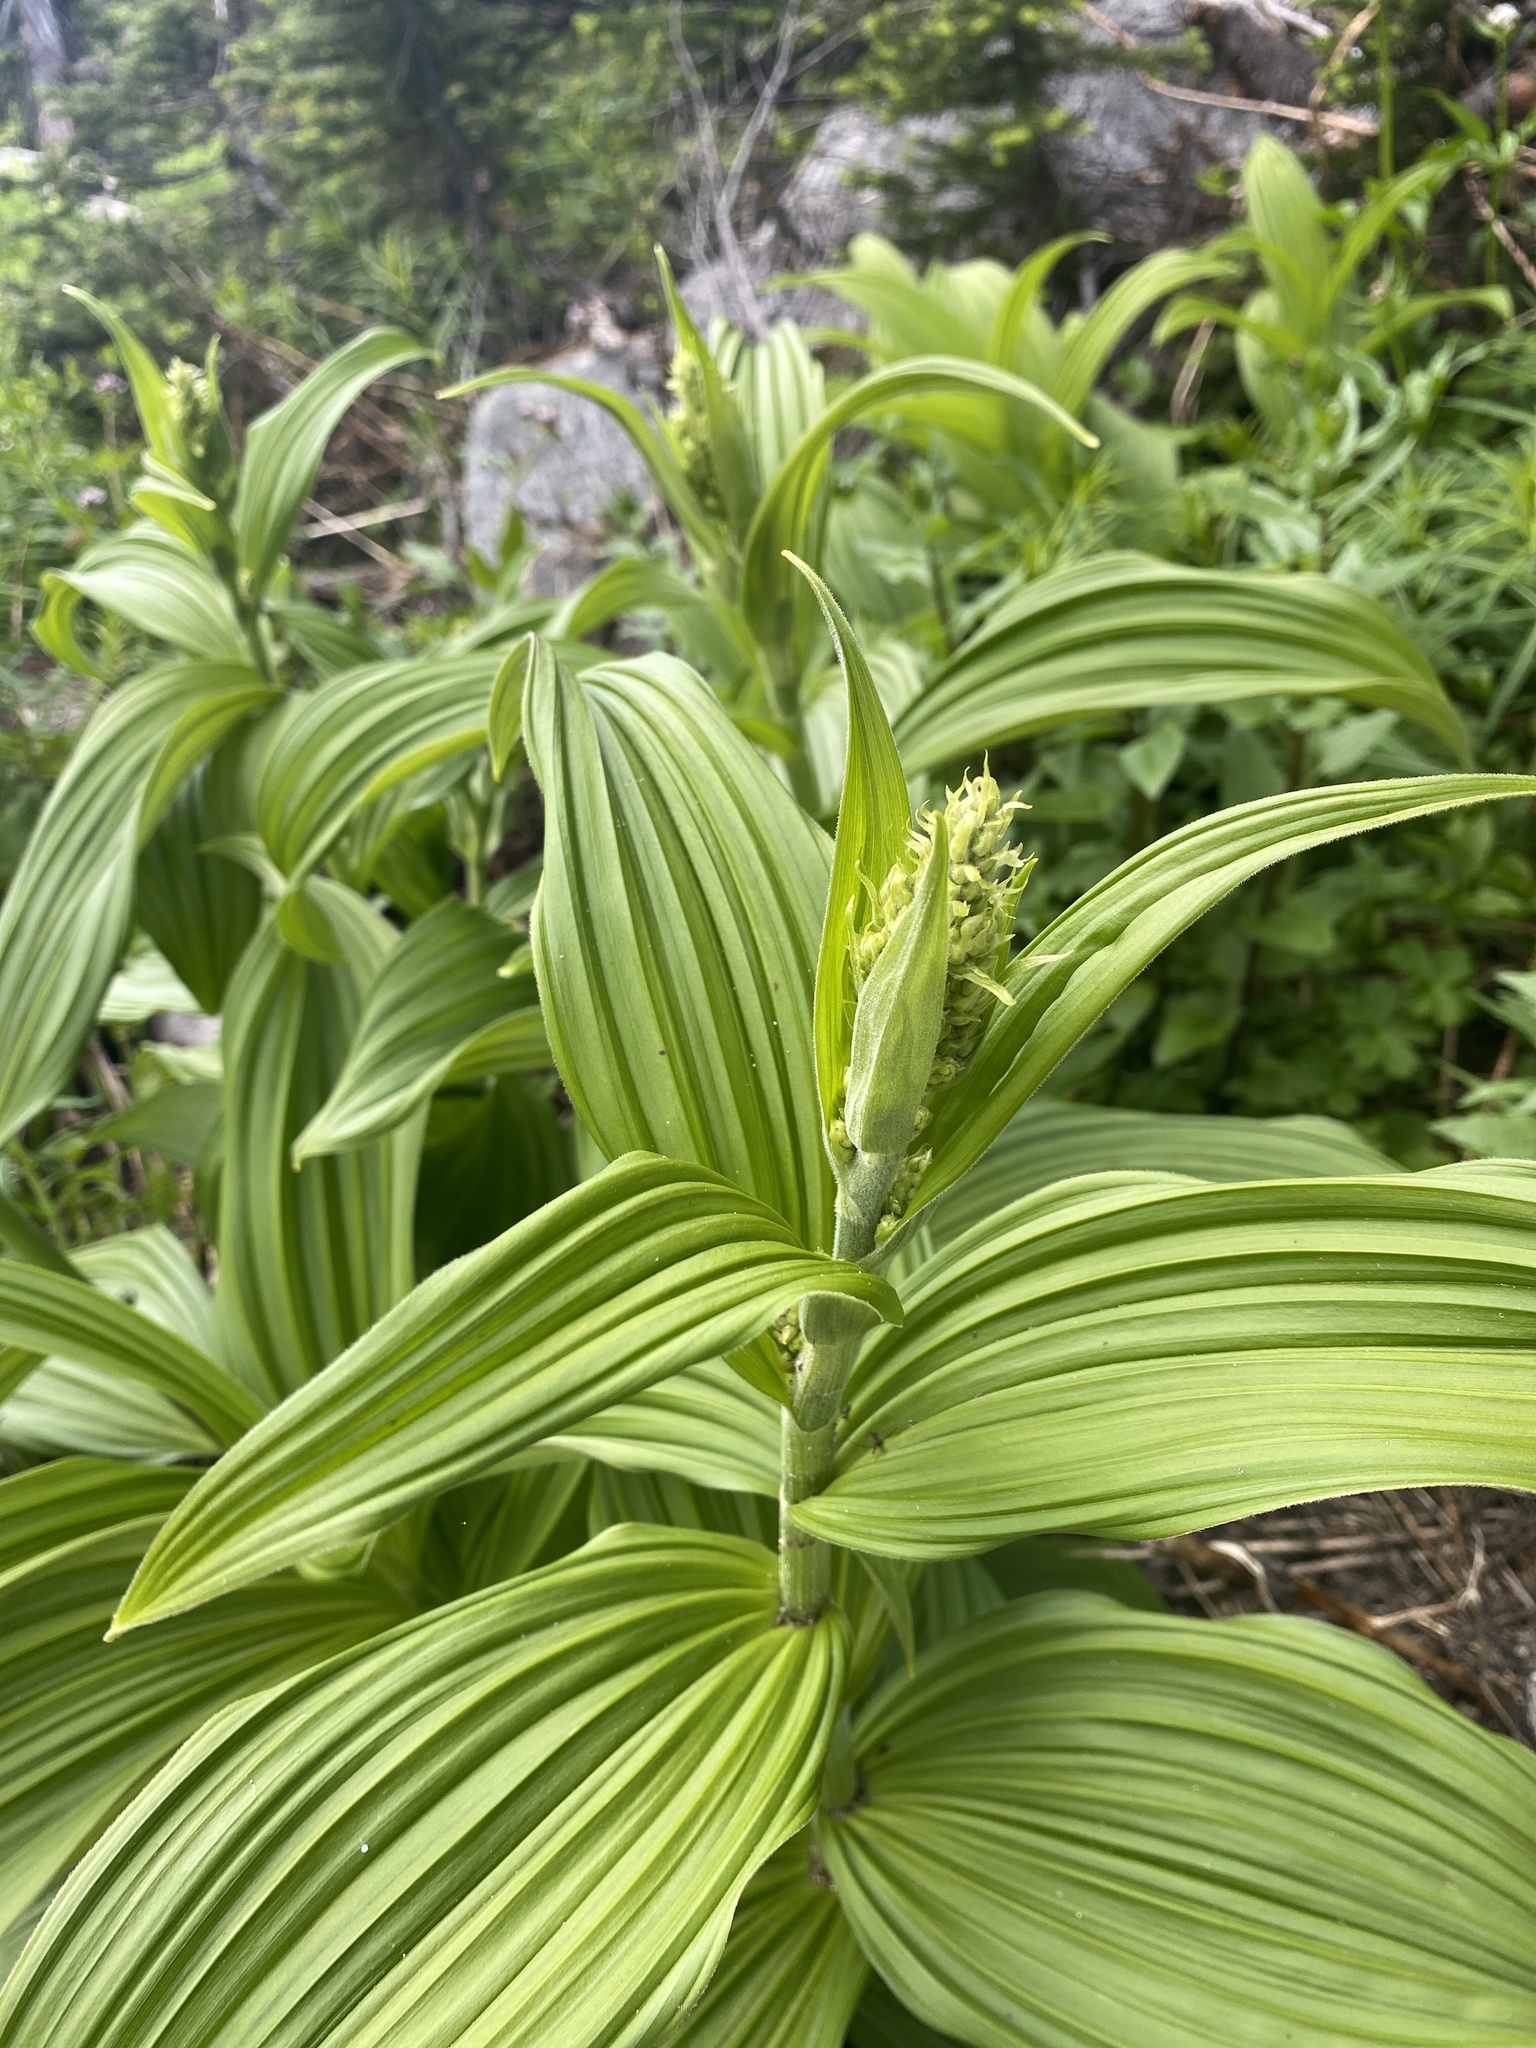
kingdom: Plantae
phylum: Tracheophyta
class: Liliopsida
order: Liliales
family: Melanthiaceae
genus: Veratrum
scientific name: Veratrum viride
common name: American false hellebore
